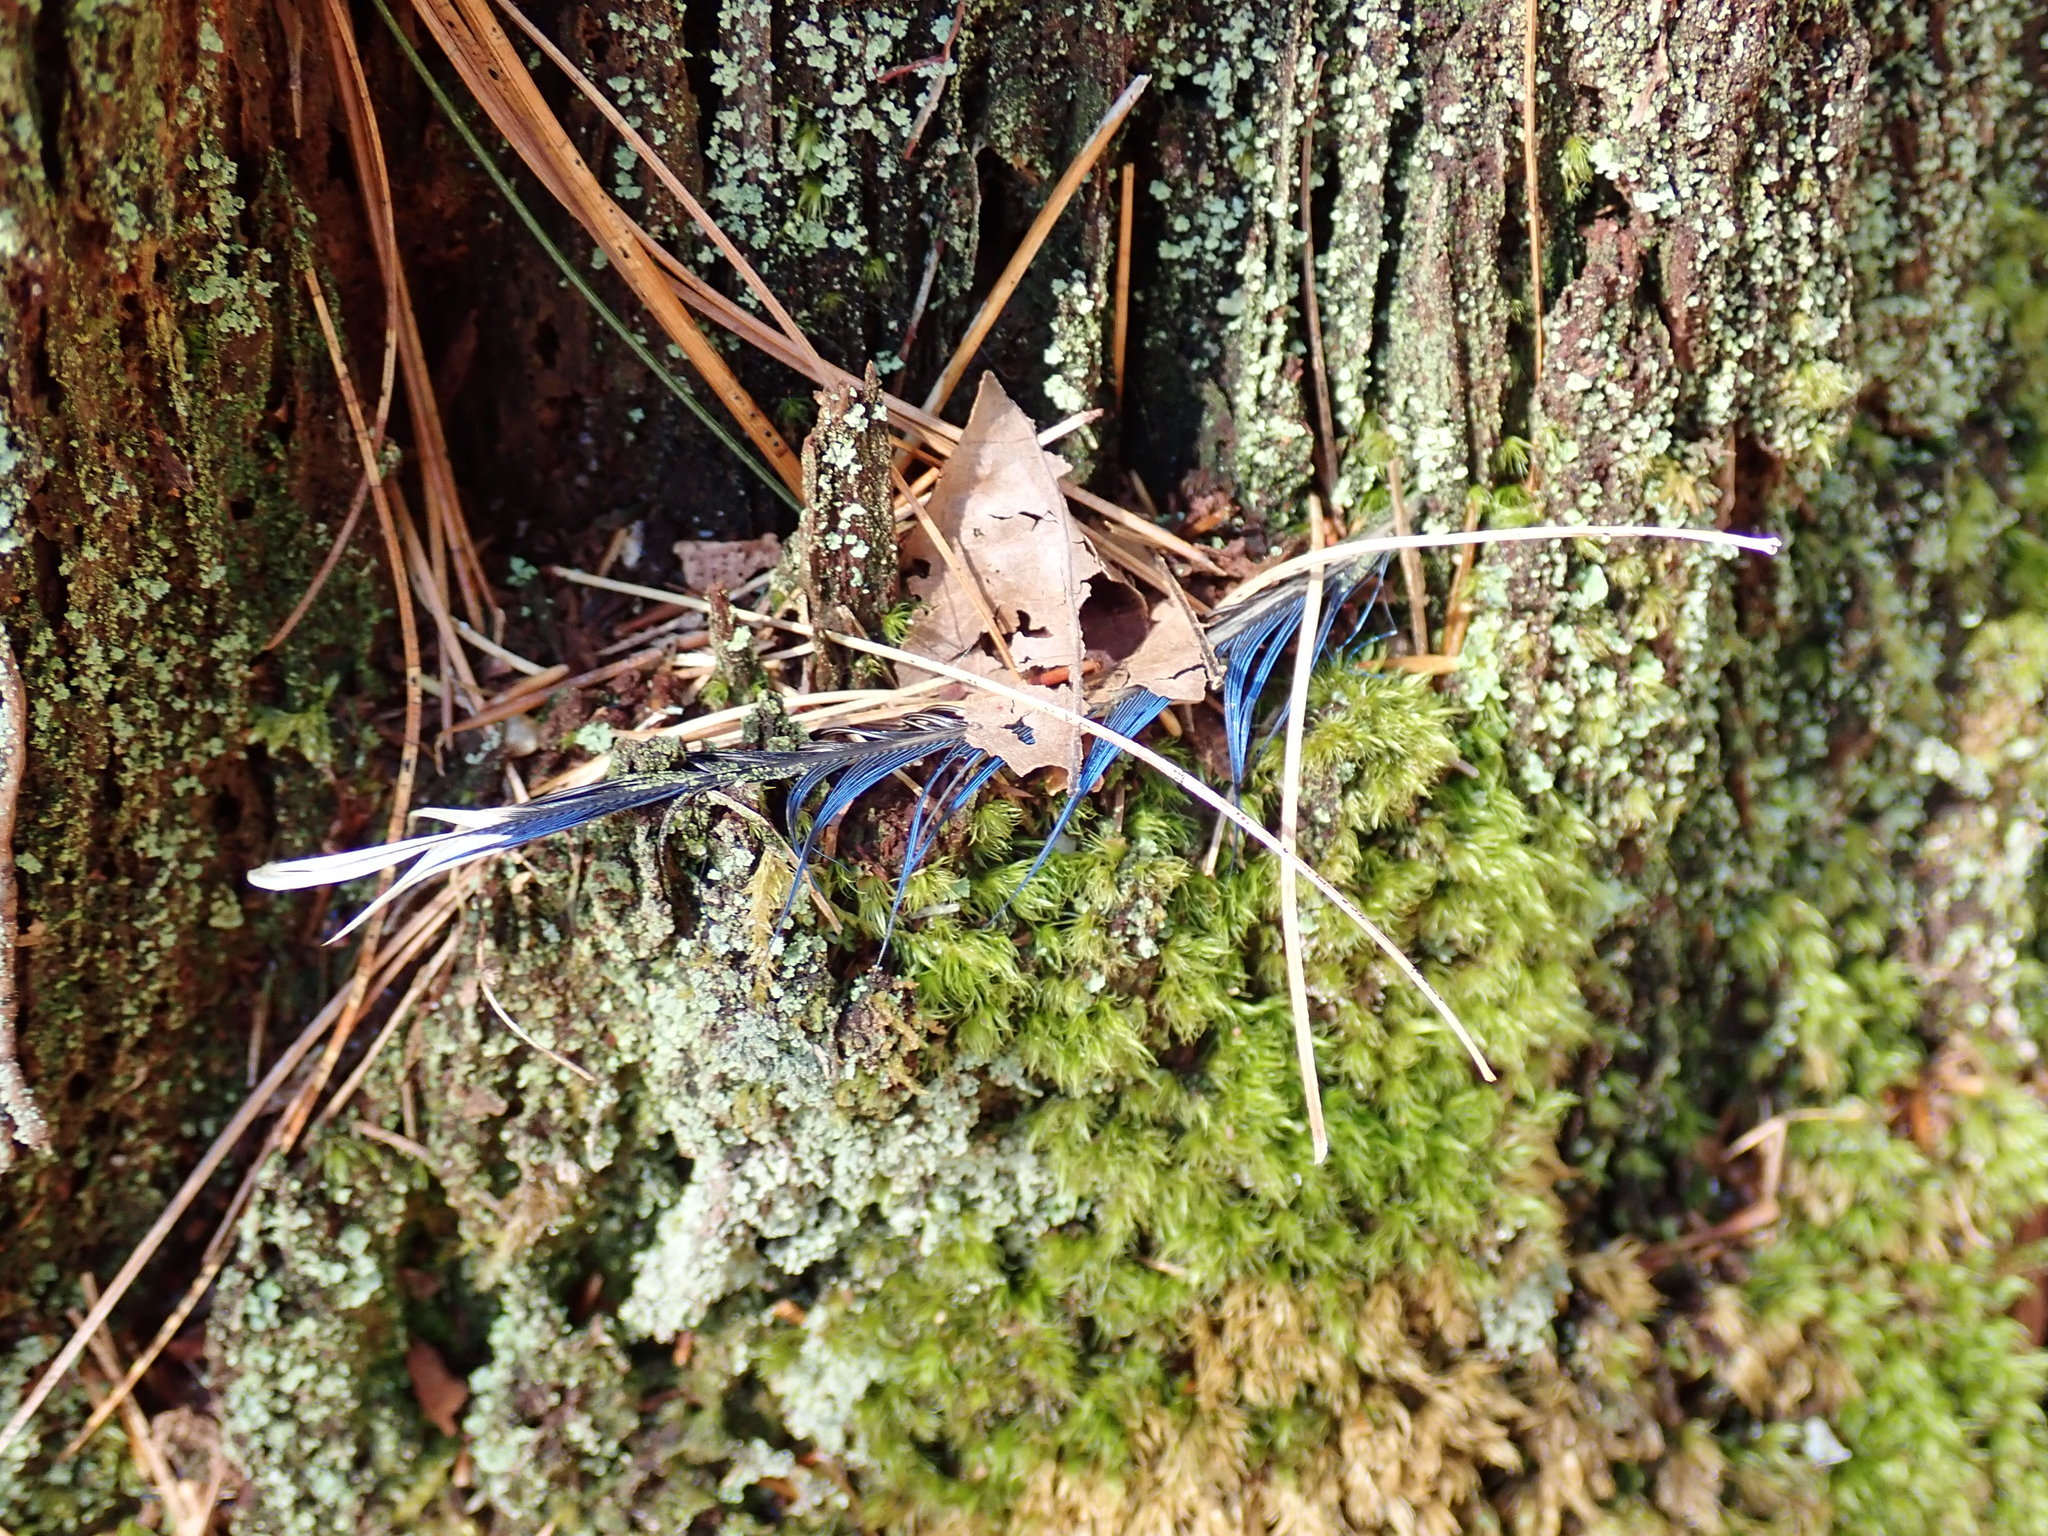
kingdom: Animalia
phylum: Chordata
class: Aves
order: Passeriformes
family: Corvidae
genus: Cyanocitta
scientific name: Cyanocitta cristata
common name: Blue jay
